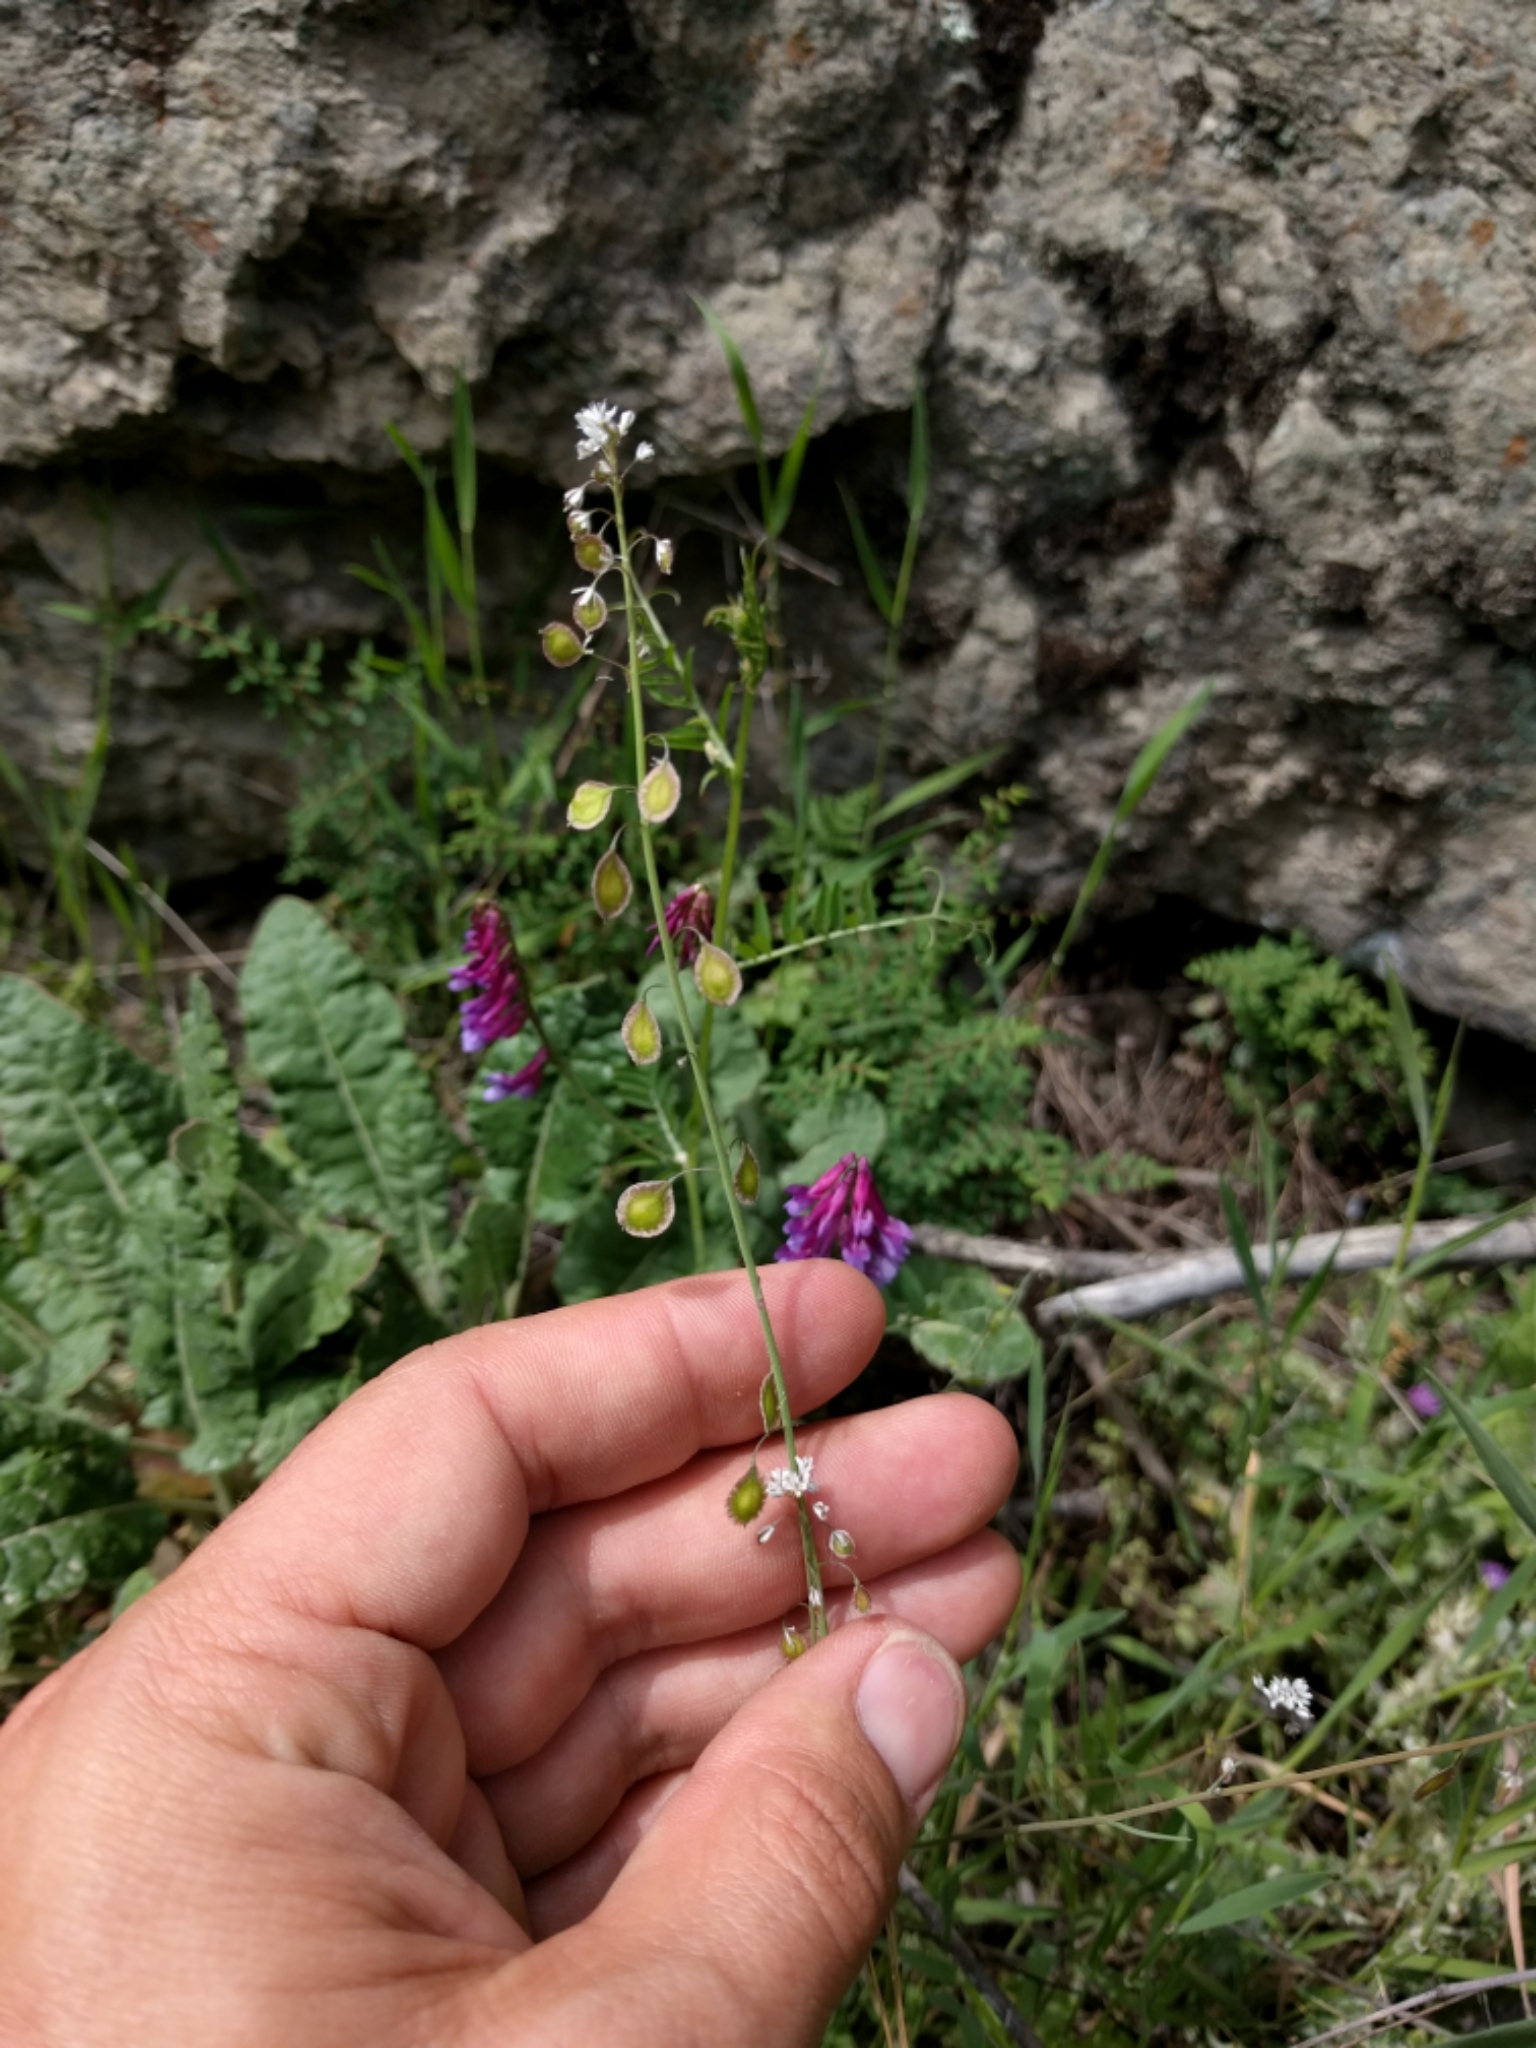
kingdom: Plantae
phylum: Tracheophyta
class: Magnoliopsida
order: Brassicales
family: Brassicaceae
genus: Thysanocarpus
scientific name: Thysanocarpus curvipes
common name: Sand fringepod
